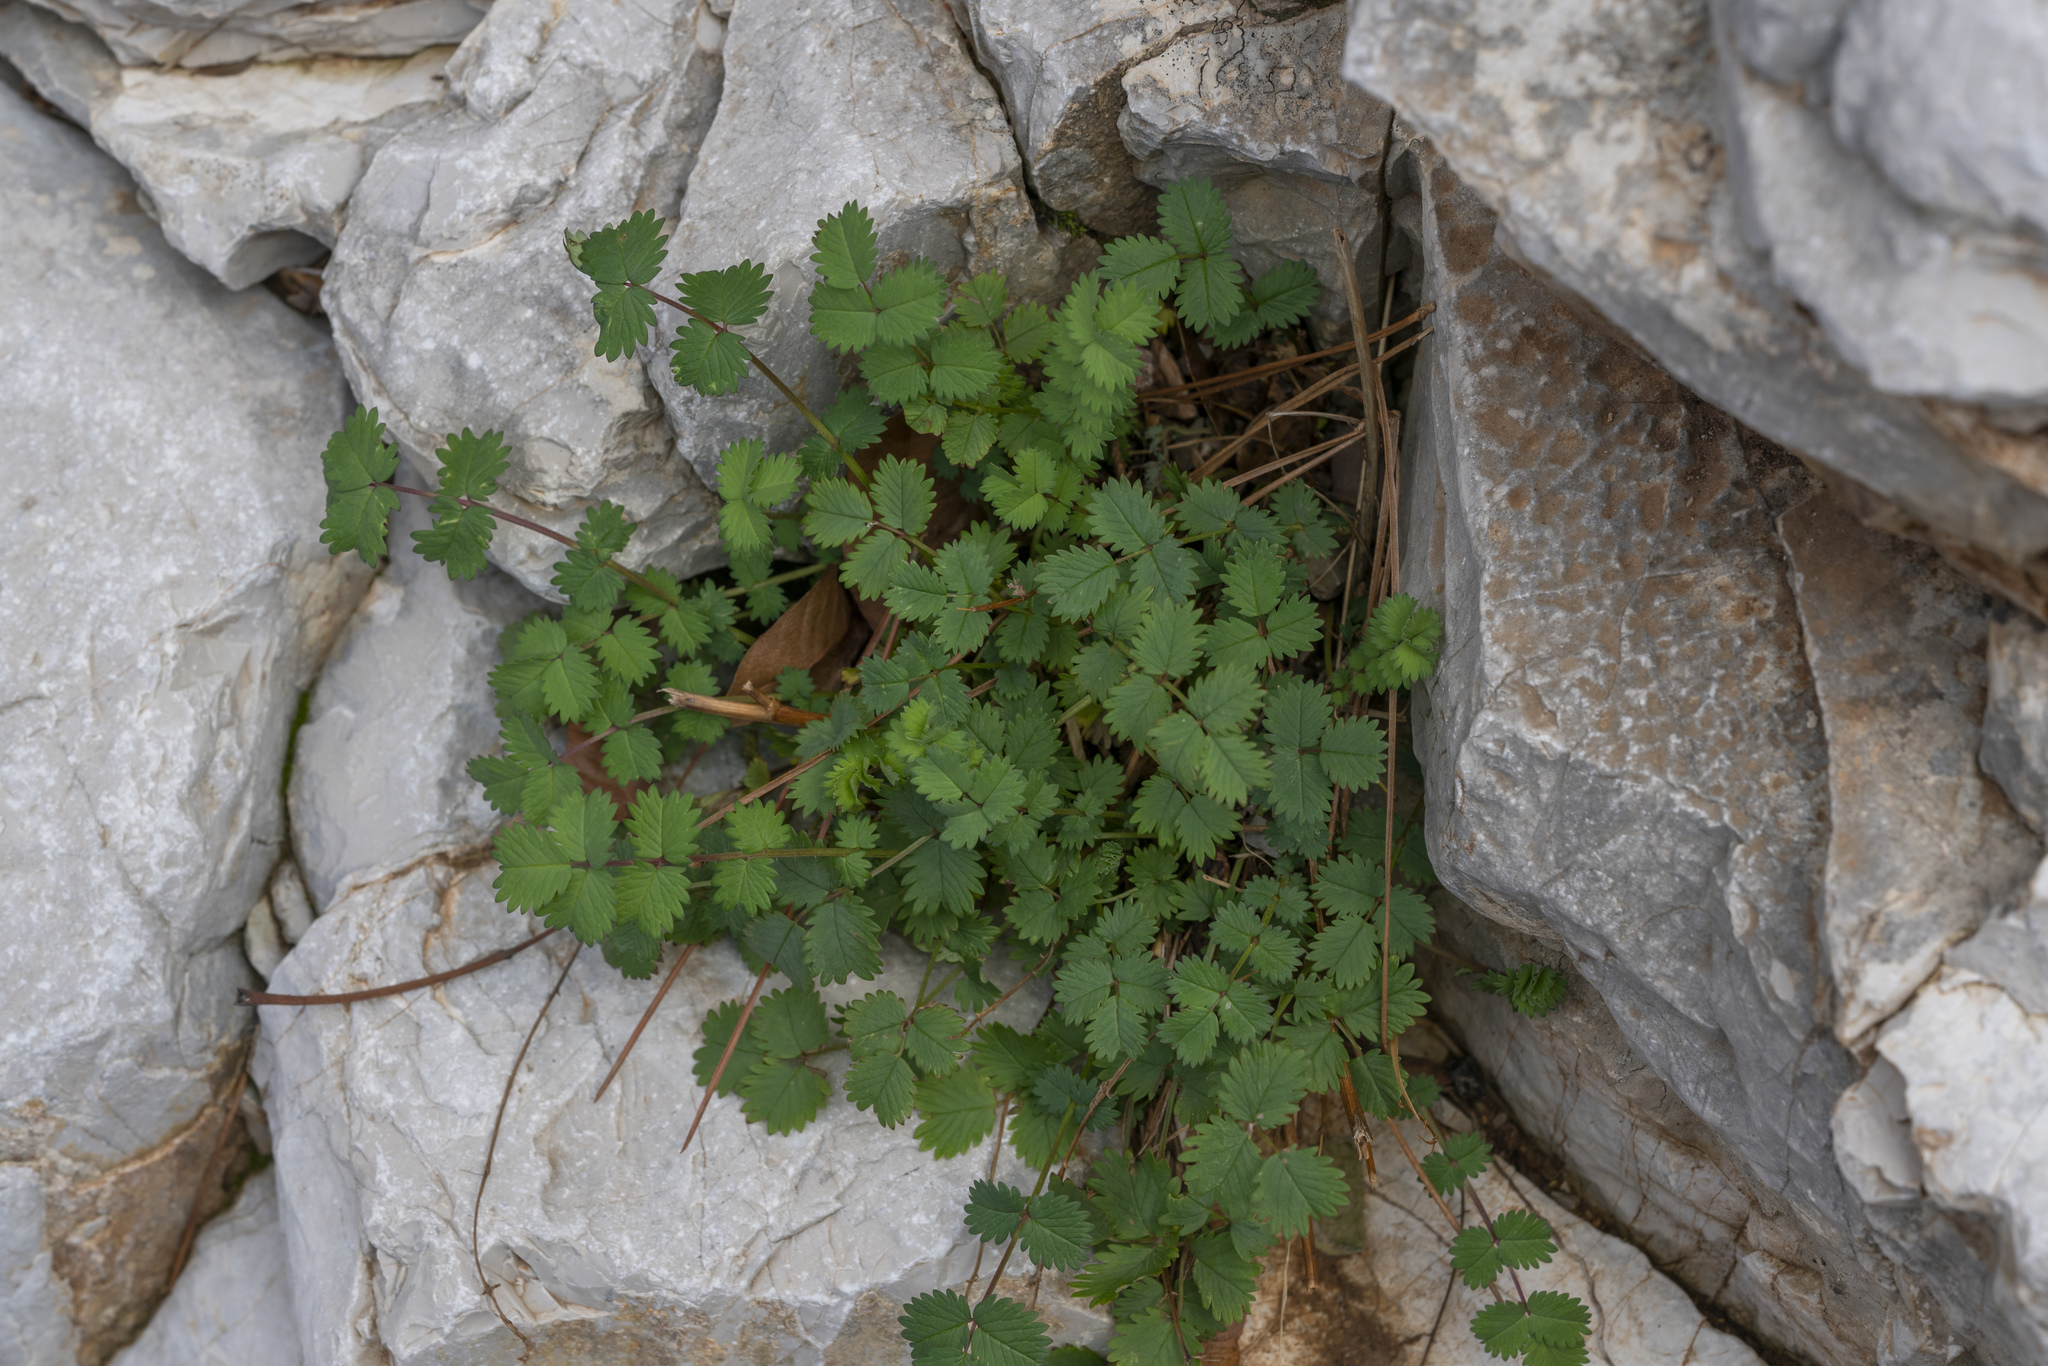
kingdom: Plantae
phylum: Tracheophyta
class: Magnoliopsida
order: Rosales
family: Rosaceae
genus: Sanguisorba
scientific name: Sanguisorba
